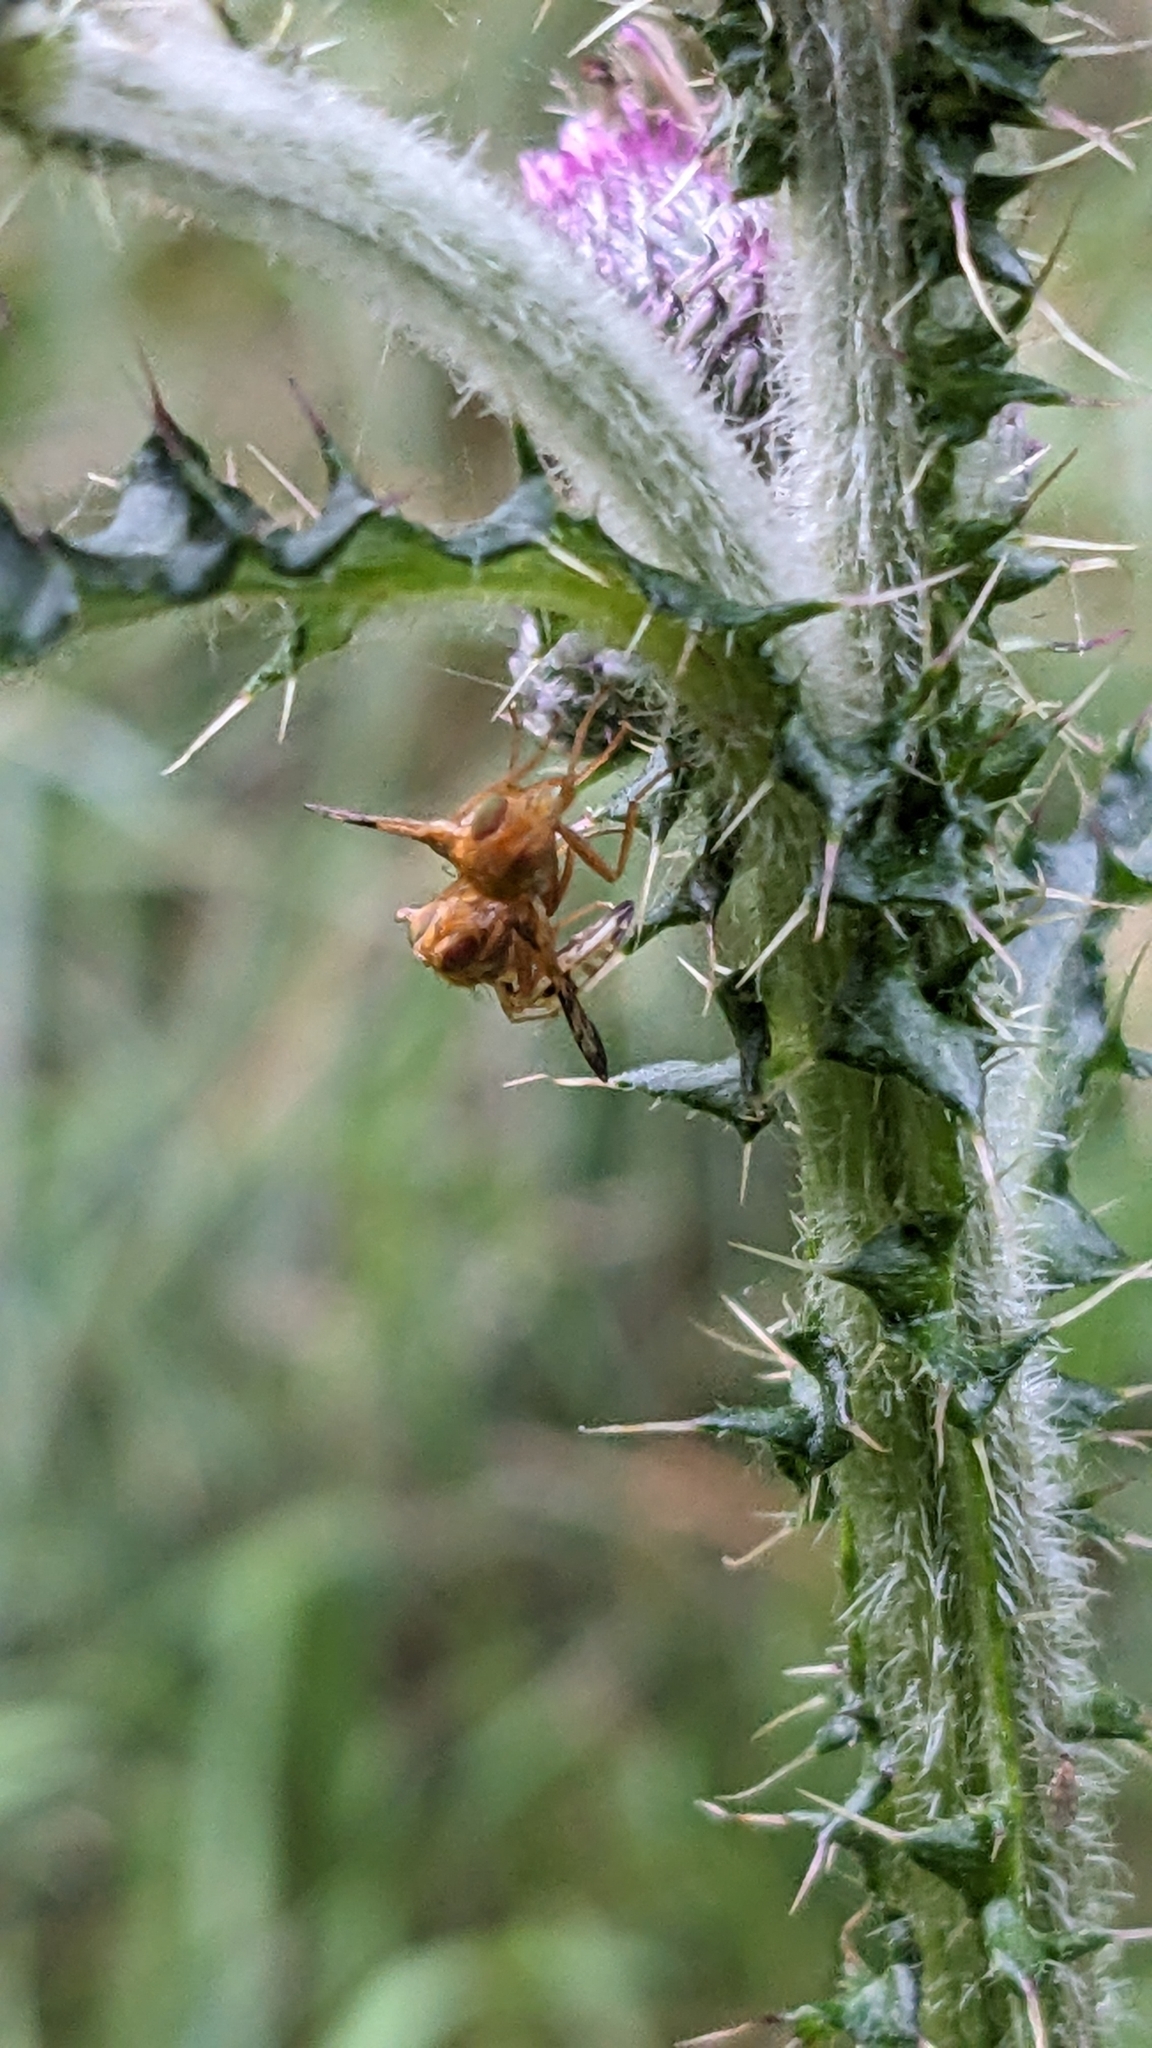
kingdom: Animalia
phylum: Arthropoda
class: Insecta
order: Diptera
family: Tephritidae
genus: Xyphosia
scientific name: Xyphosia miliaria
